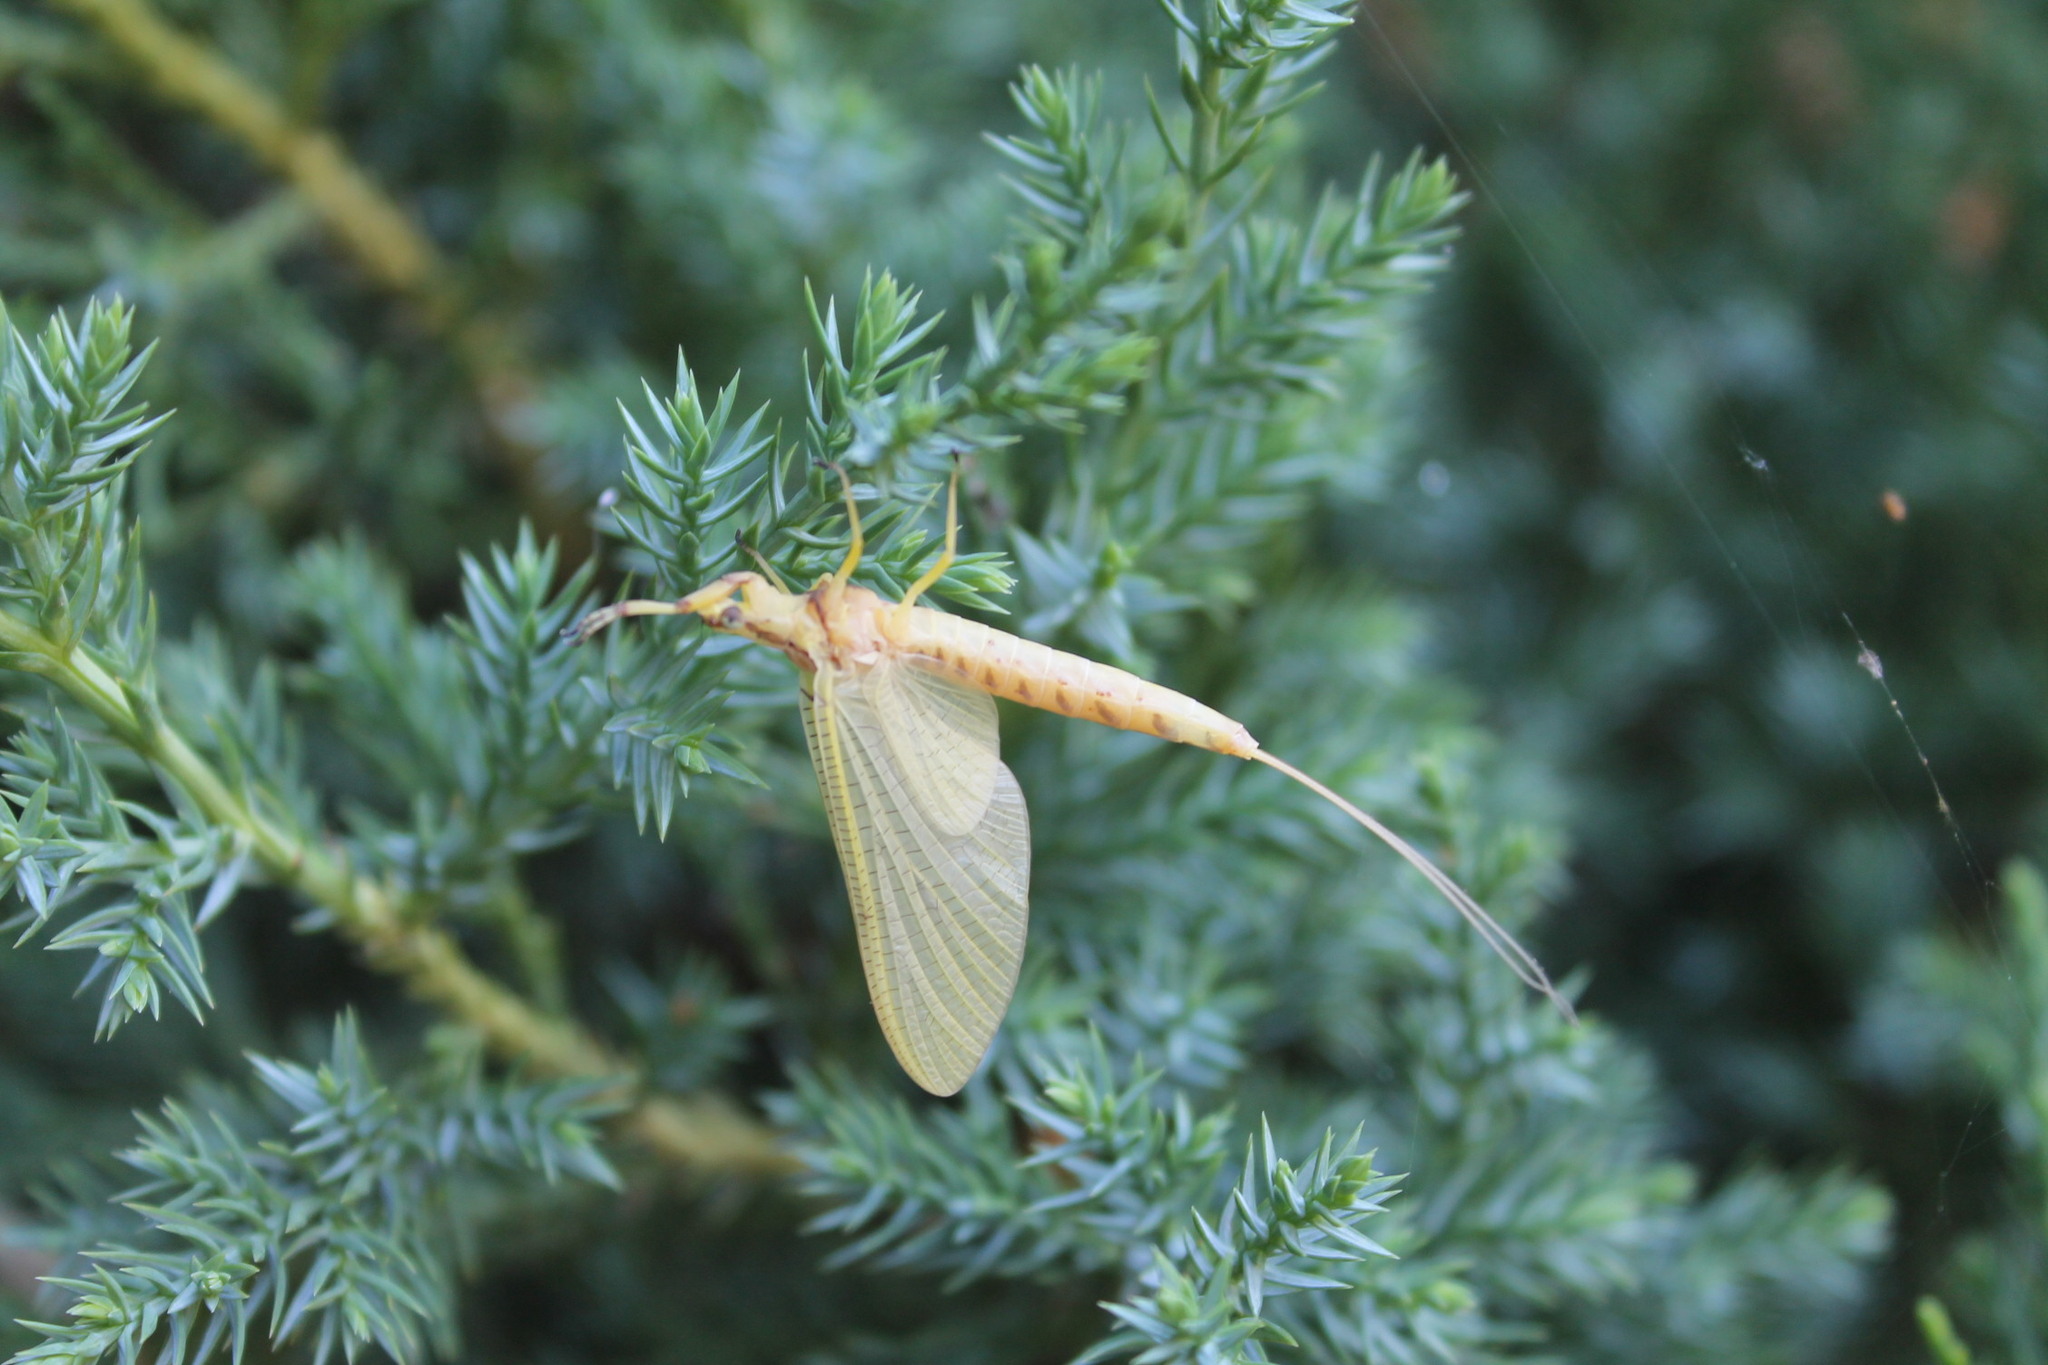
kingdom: Animalia
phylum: Arthropoda
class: Insecta
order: Ephemeroptera
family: Ephemeridae
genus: Hexagenia
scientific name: Hexagenia limbata
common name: Giant mayfly
